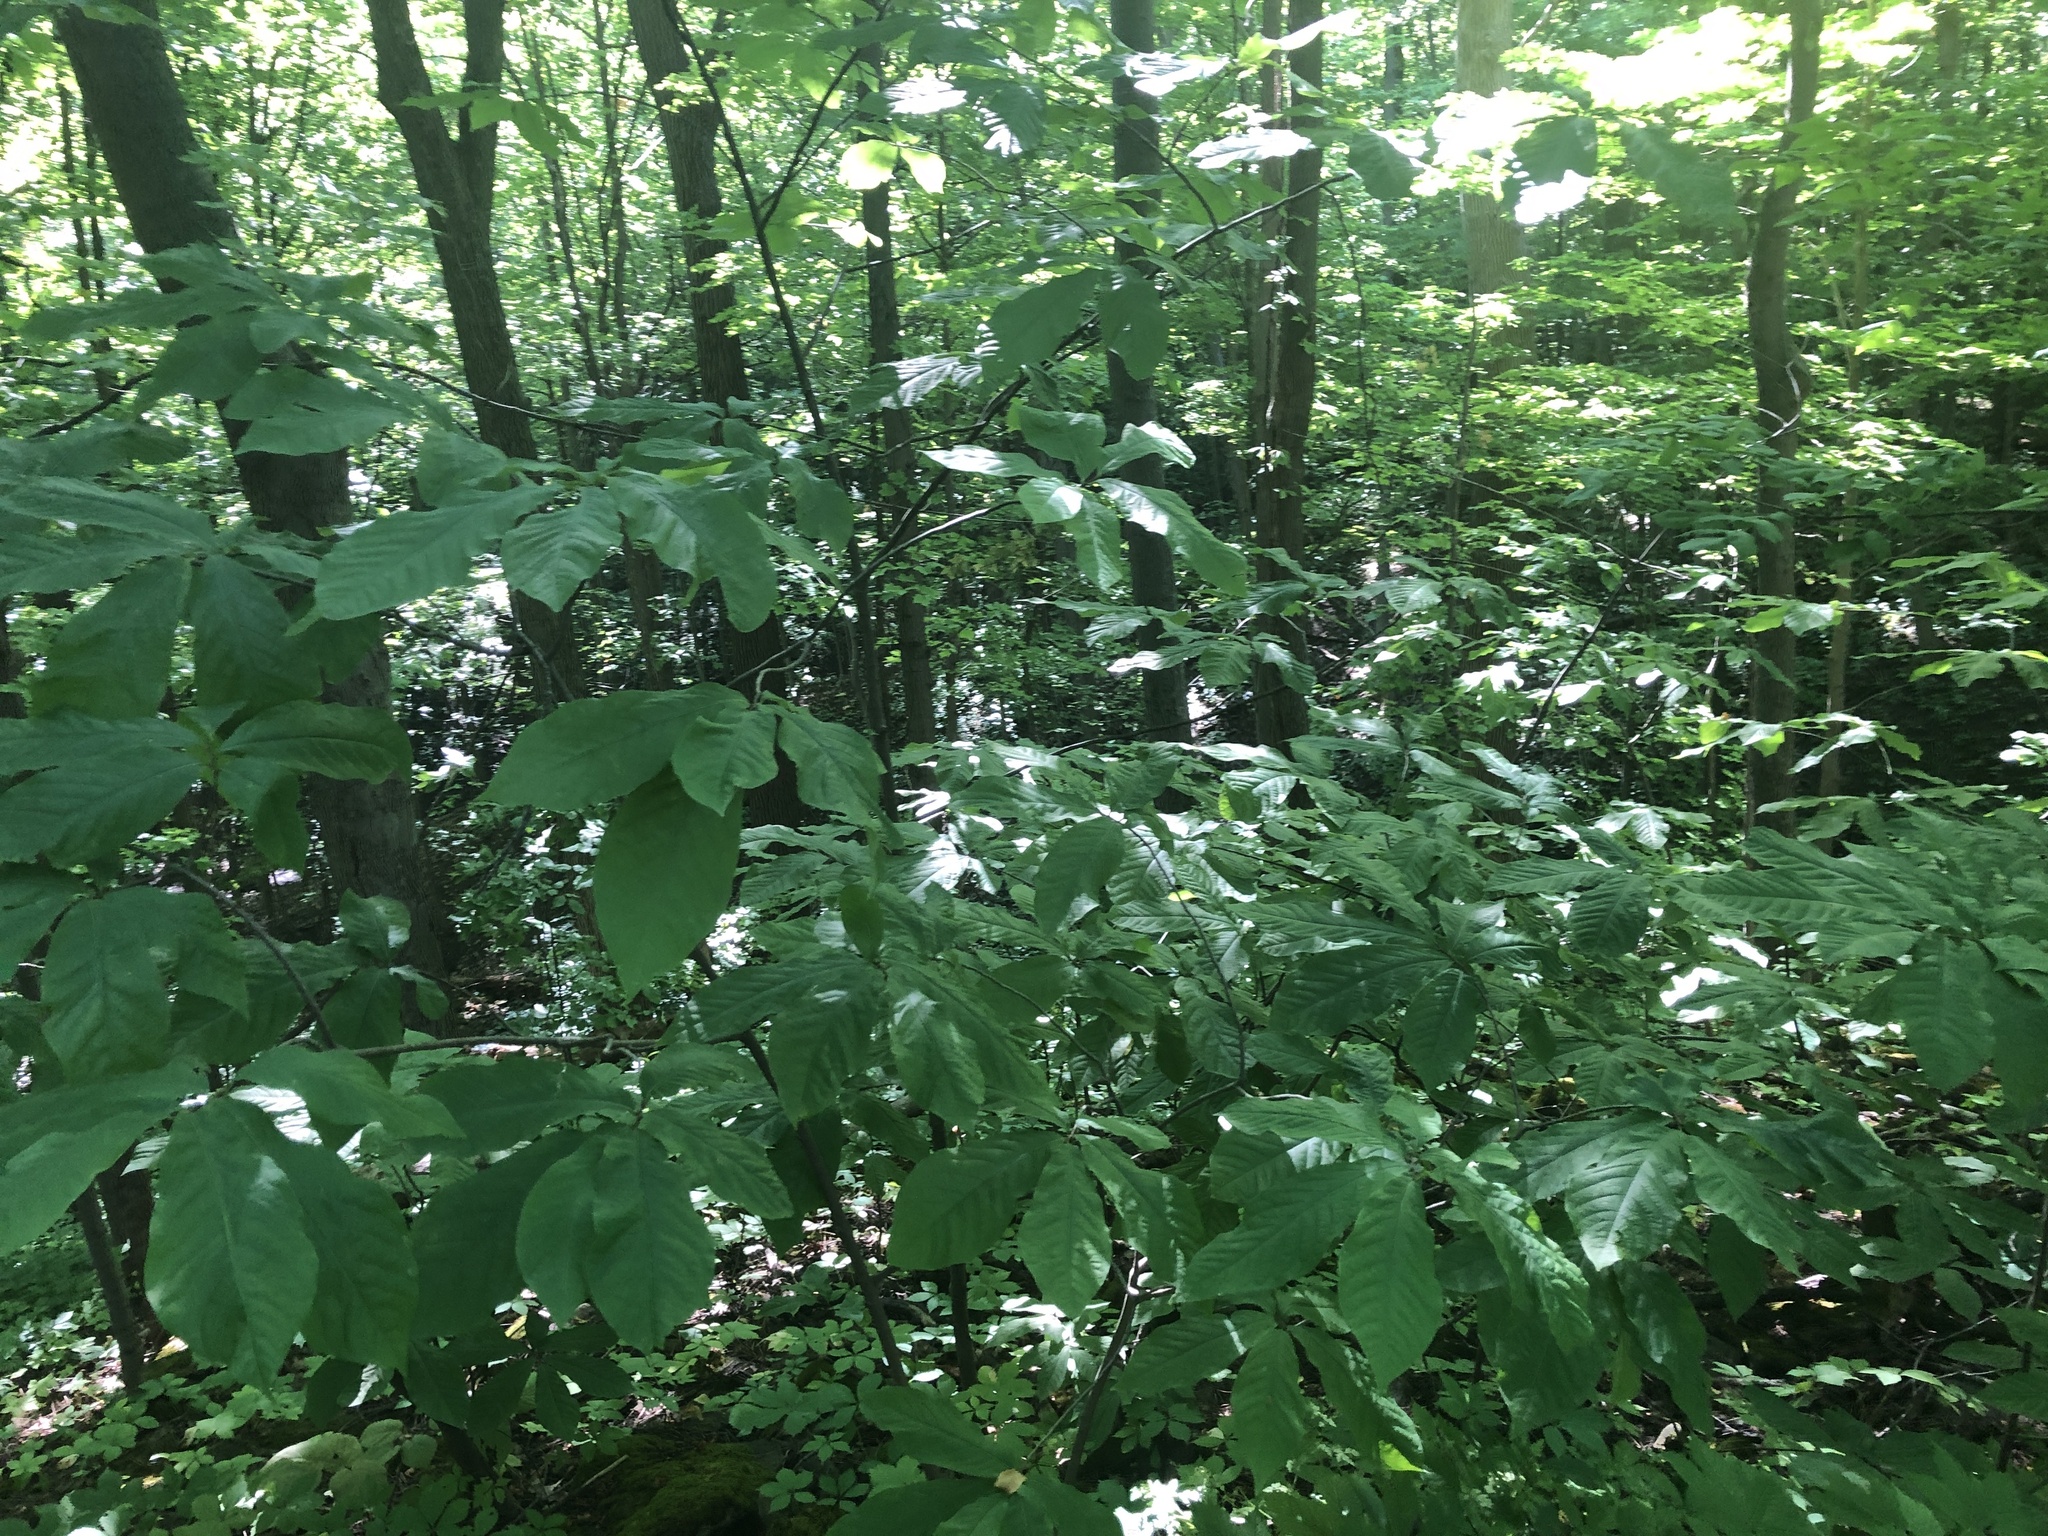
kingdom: Plantae
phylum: Tracheophyta
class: Magnoliopsida
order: Magnoliales
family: Annonaceae
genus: Asimina
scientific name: Asimina triloba
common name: Dog-banana
